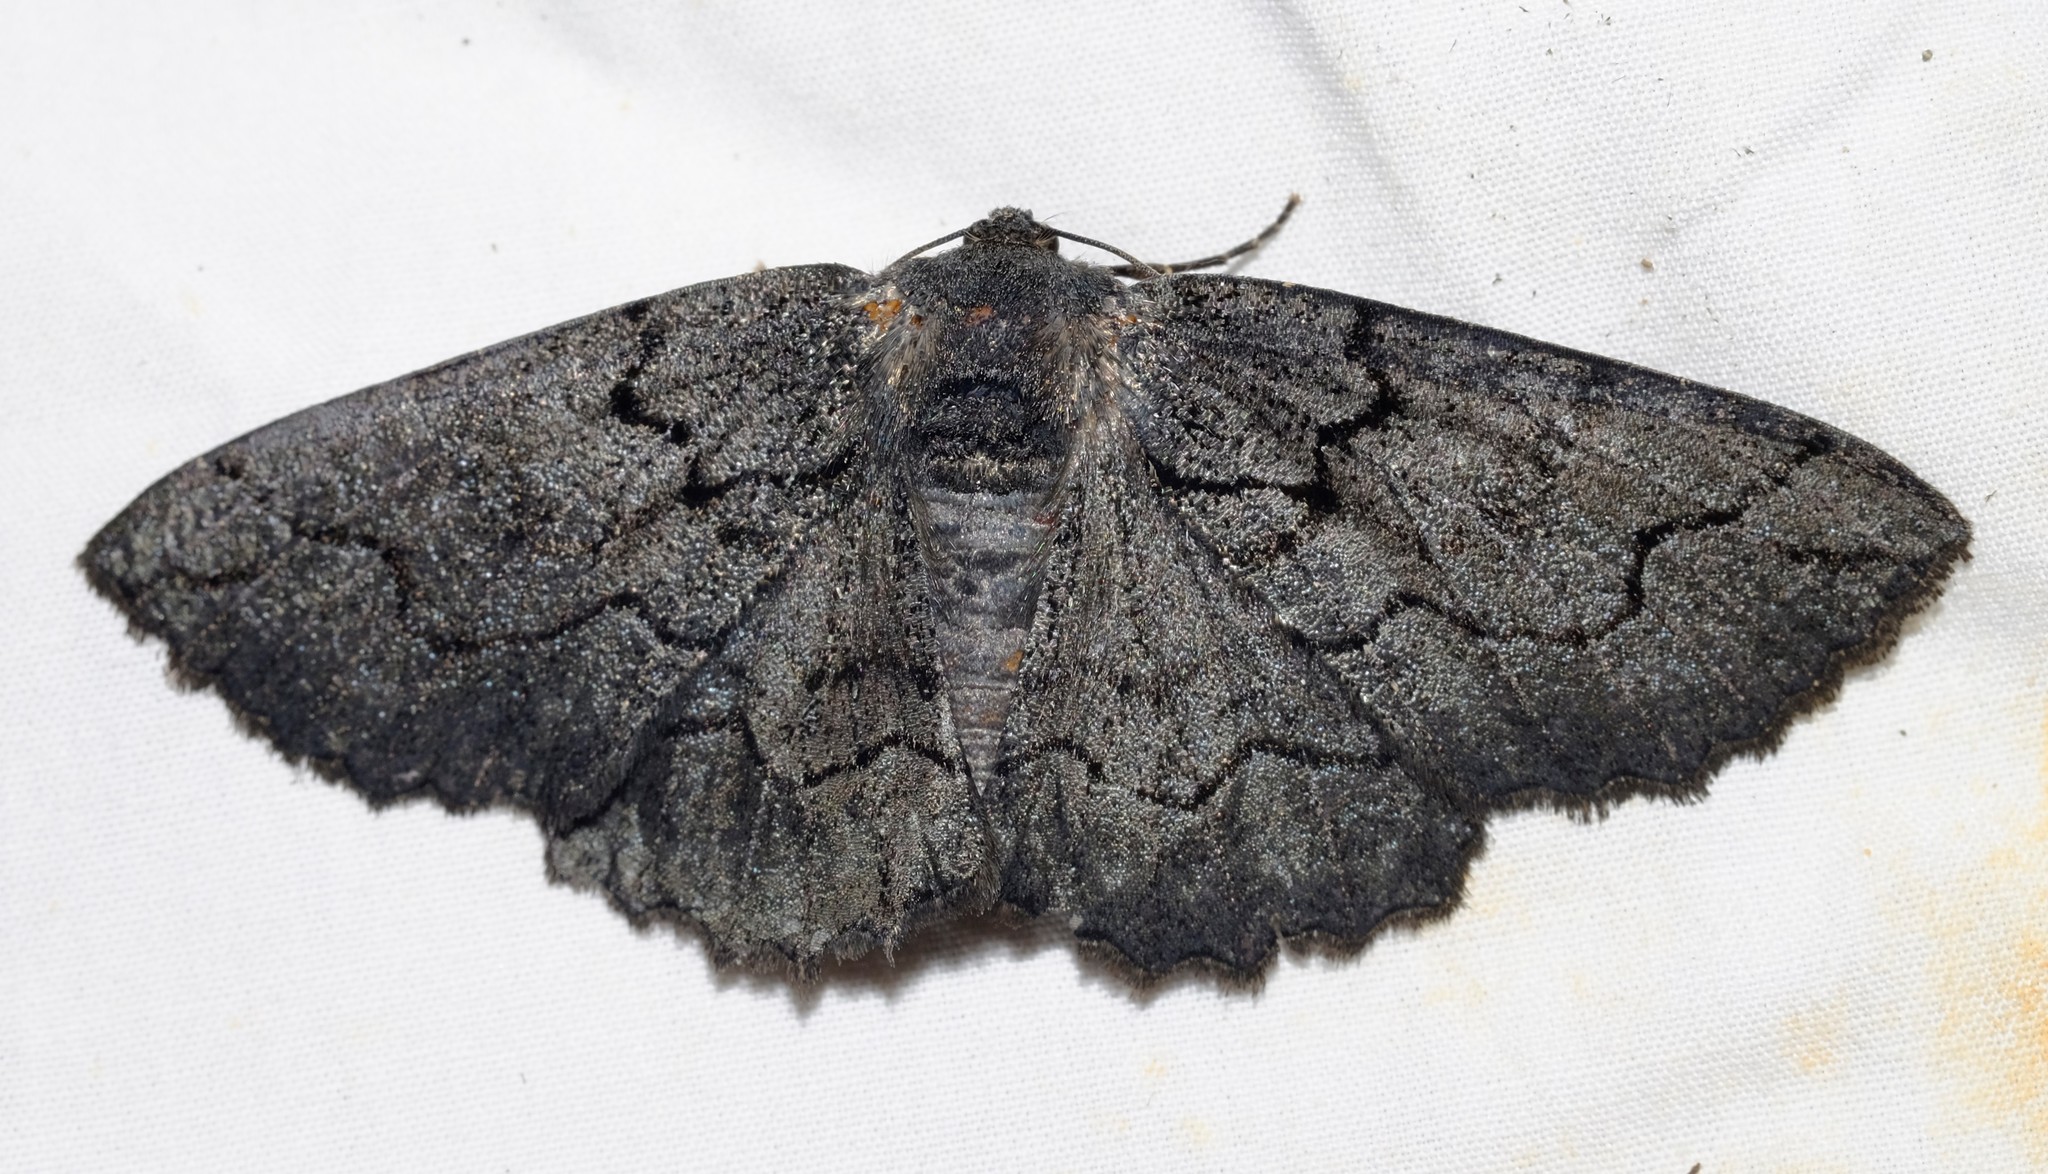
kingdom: Animalia
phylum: Arthropoda
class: Insecta
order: Lepidoptera
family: Geometridae
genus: Melanodes
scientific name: Melanodes anthracitaria
